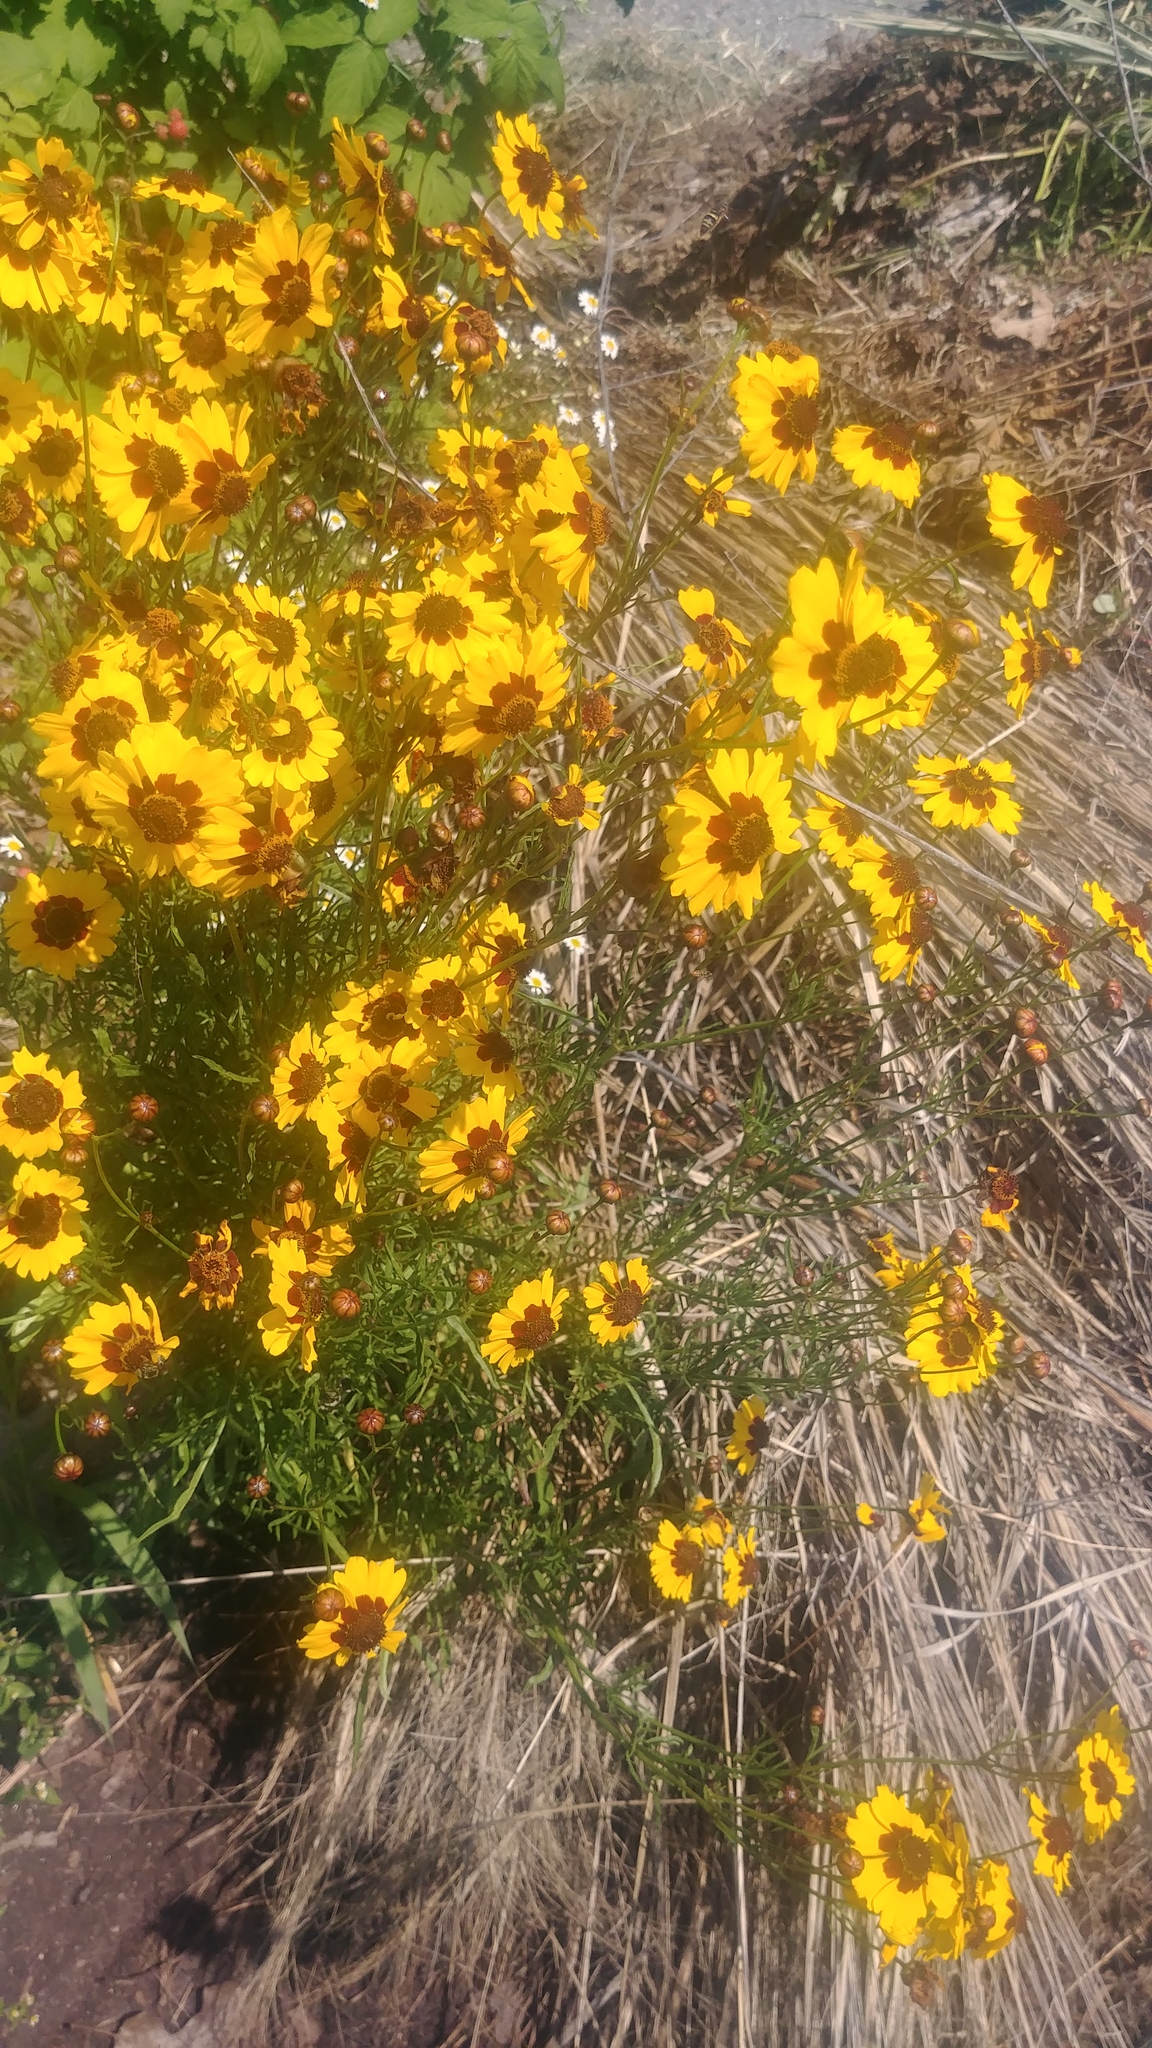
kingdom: Plantae
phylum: Tracheophyta
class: Magnoliopsida
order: Asterales
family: Asteraceae
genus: Coreopsis
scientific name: Coreopsis tinctoria
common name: Garden tickseed
